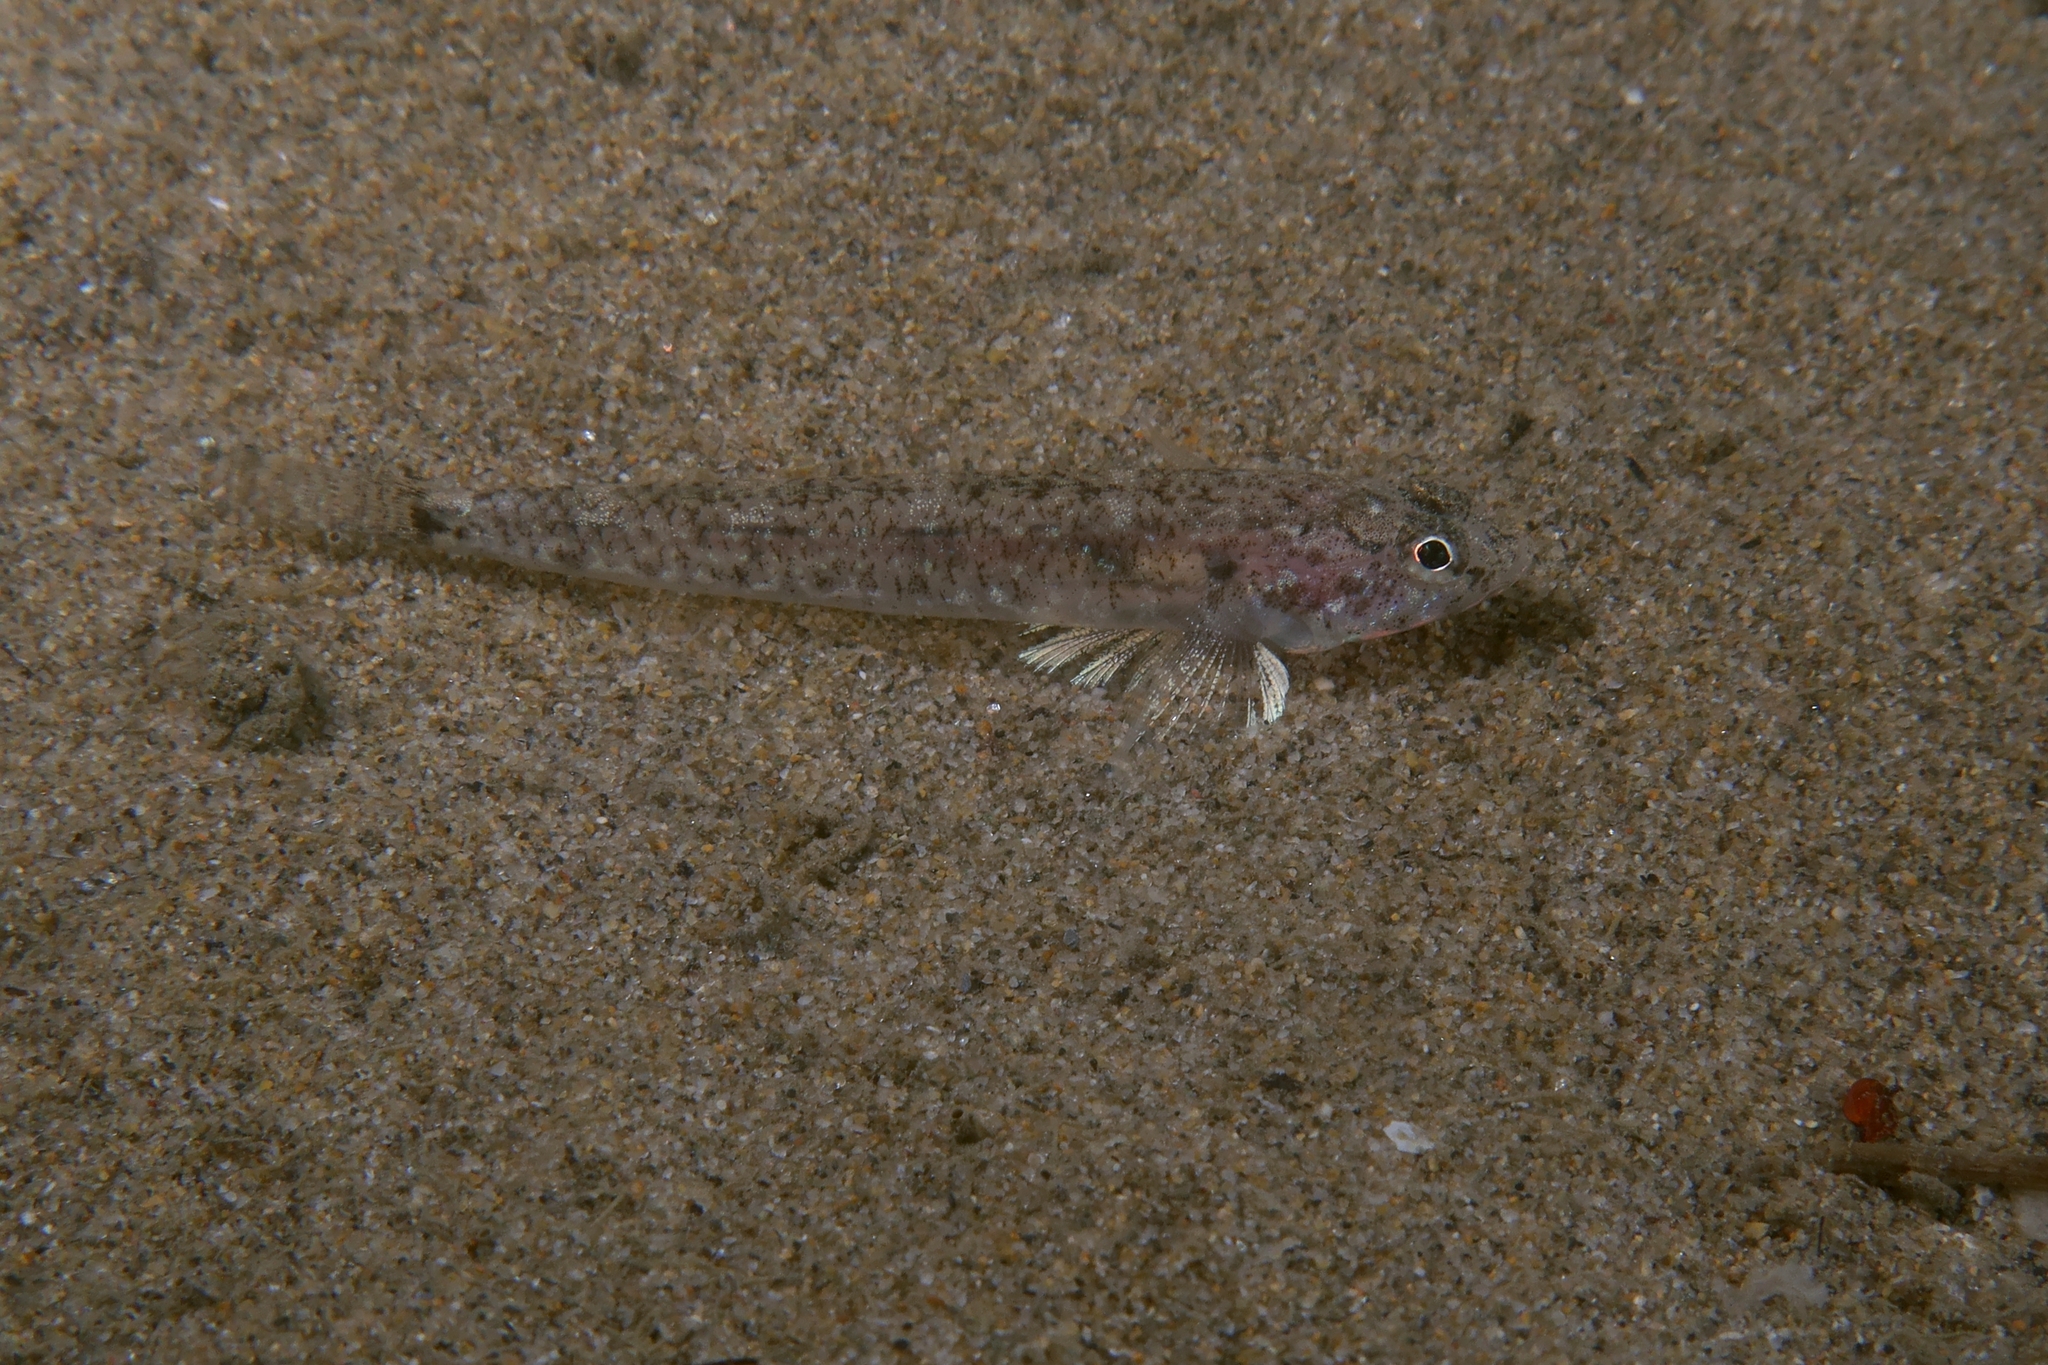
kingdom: Animalia
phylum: Chordata
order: Perciformes
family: Gobiidae
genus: Pomatoschistus
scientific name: Pomatoschistus marmoratus
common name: Marbled goby
